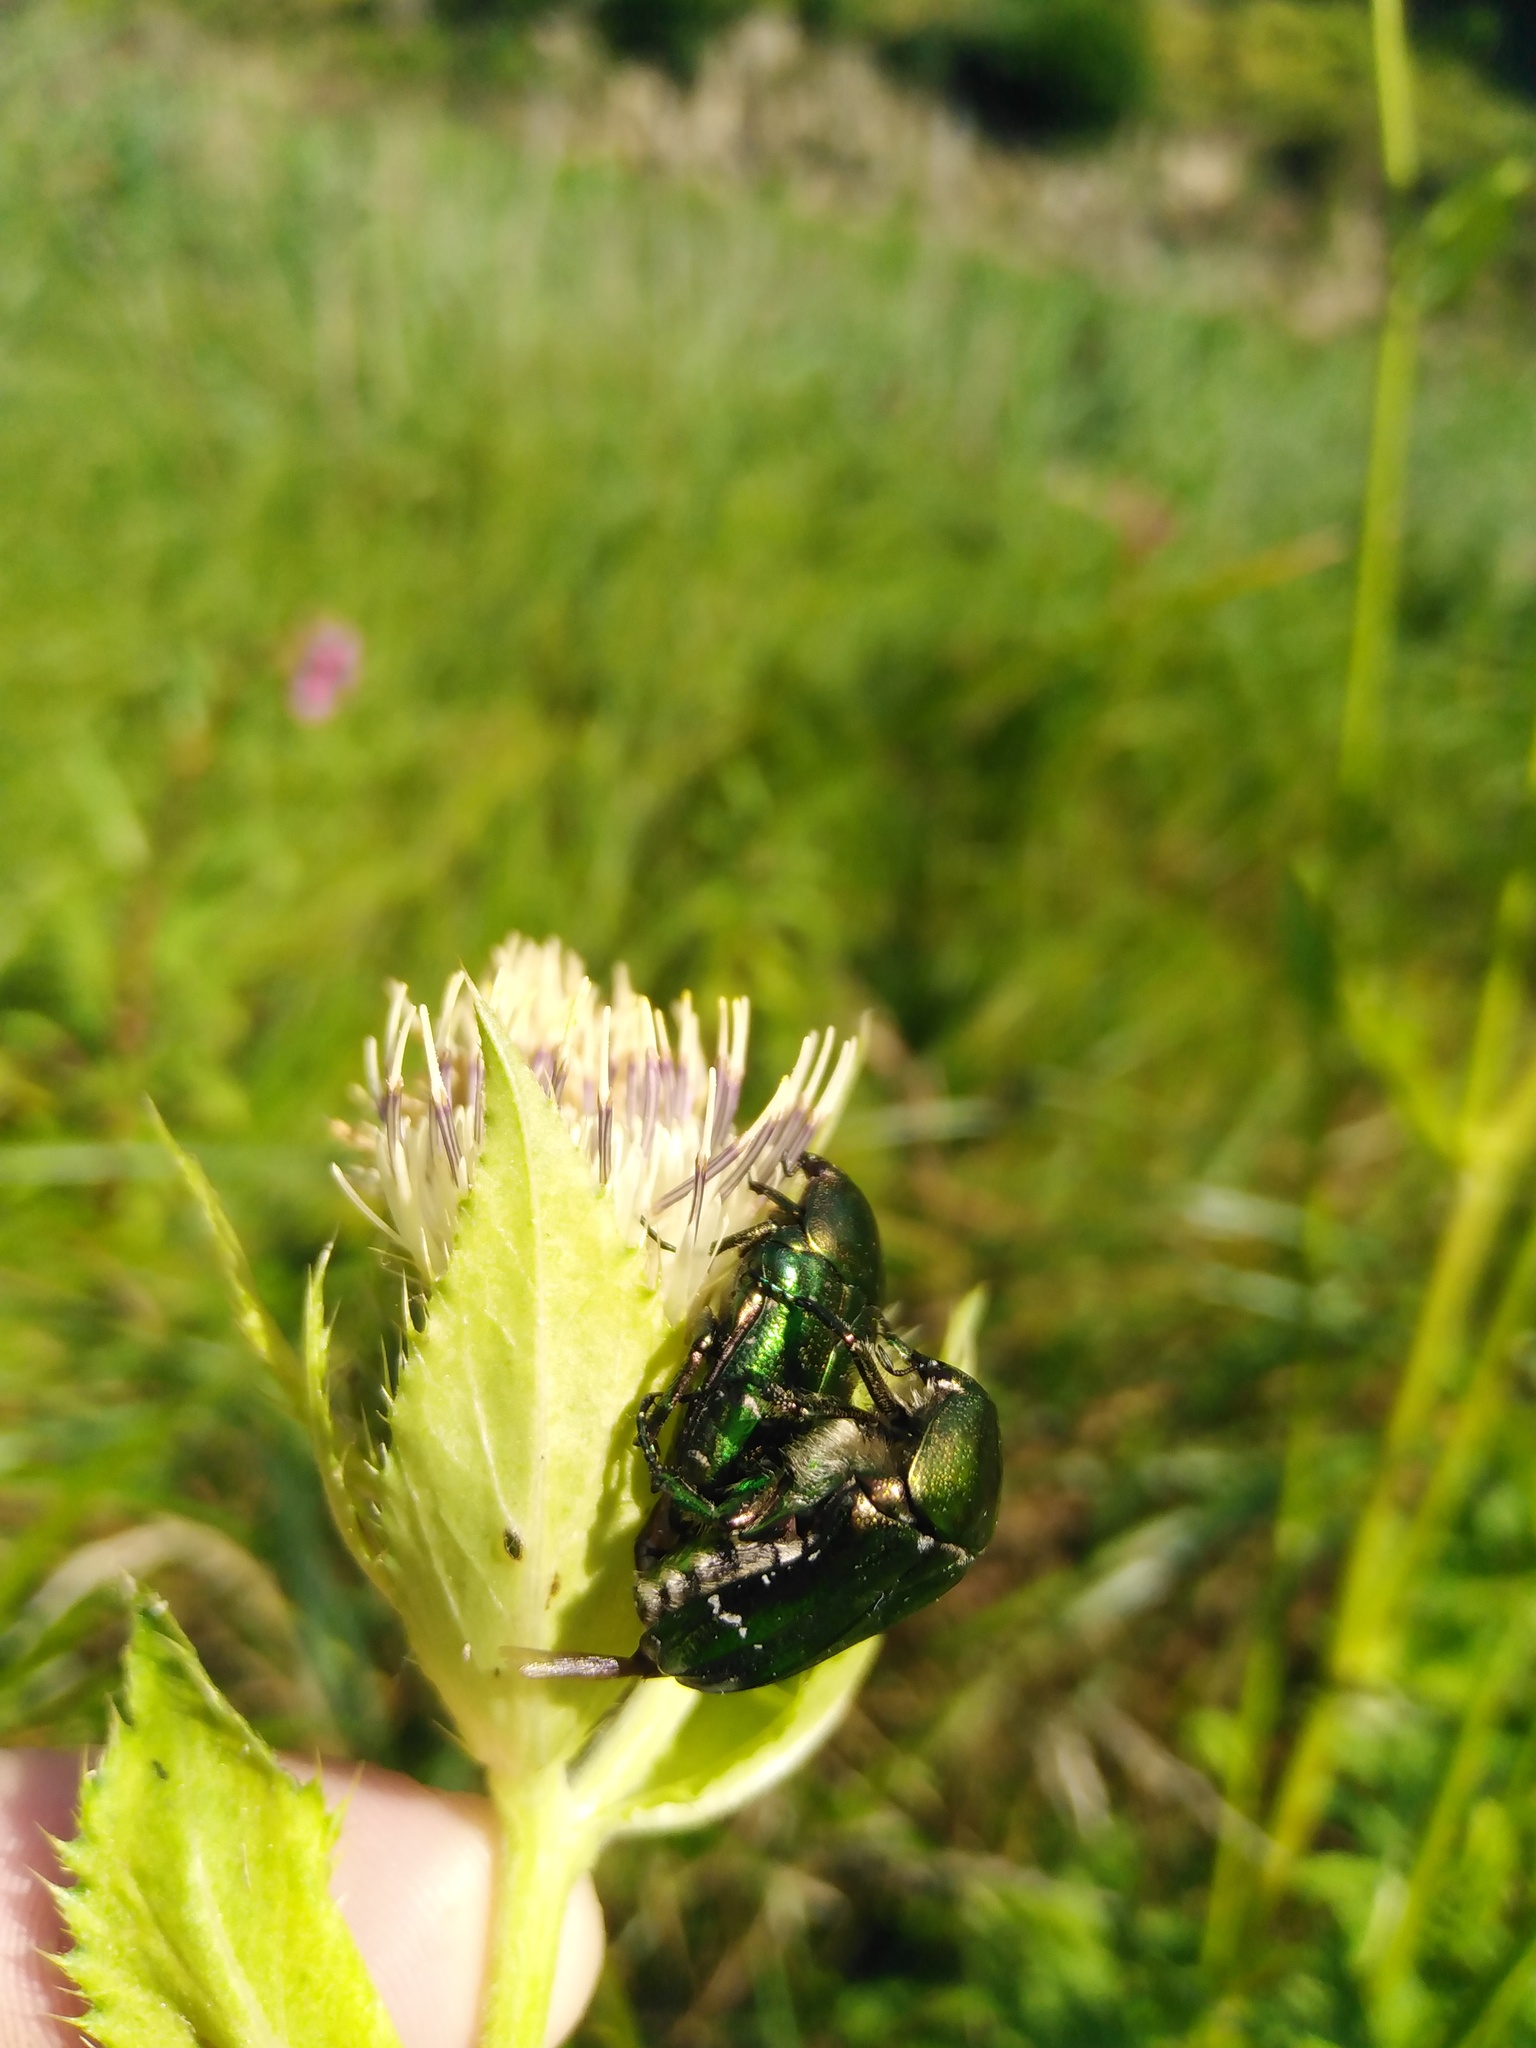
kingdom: Animalia
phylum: Arthropoda
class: Insecta
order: Coleoptera
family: Scarabaeidae
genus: Cetonia
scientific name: Cetonia aurata
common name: Rose chafer
